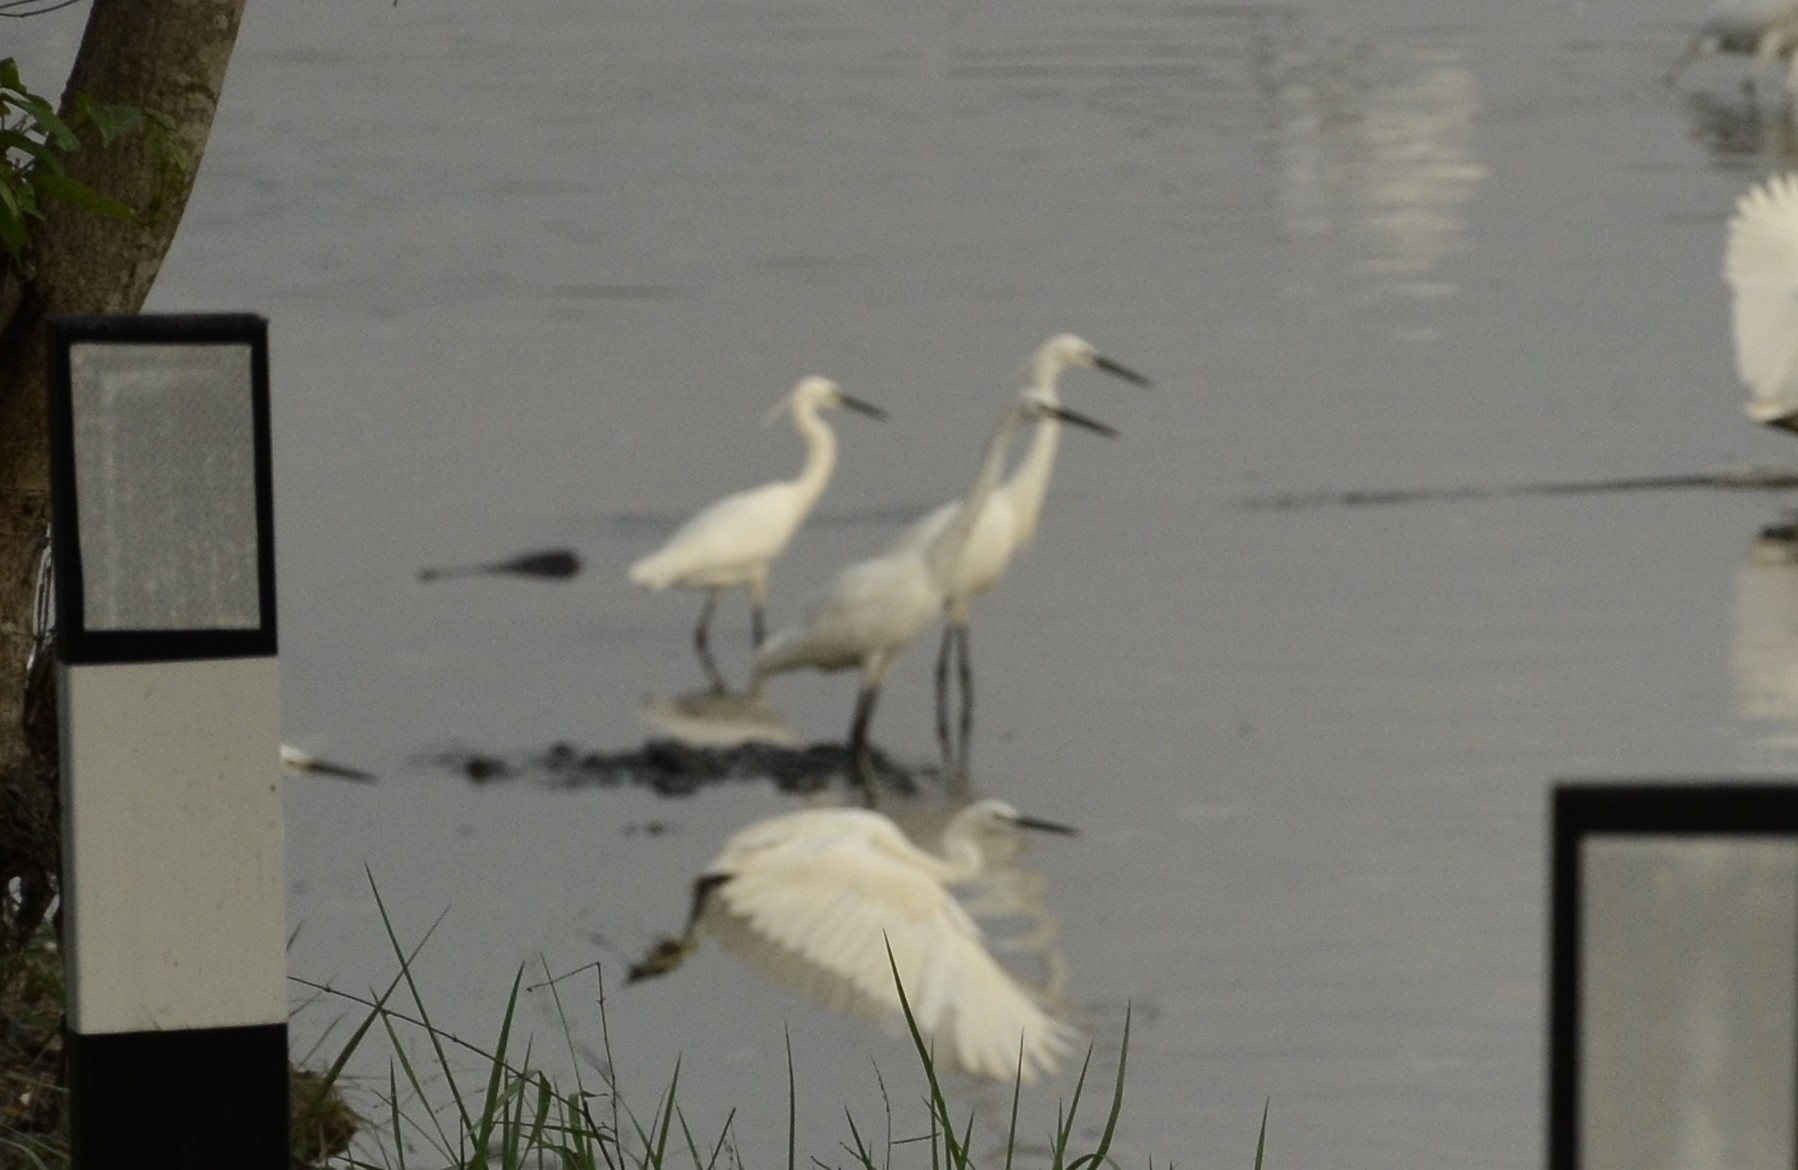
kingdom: Animalia
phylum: Chordata
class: Aves
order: Pelecaniformes
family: Ardeidae
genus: Egretta
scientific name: Egretta garzetta
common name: Little egret
